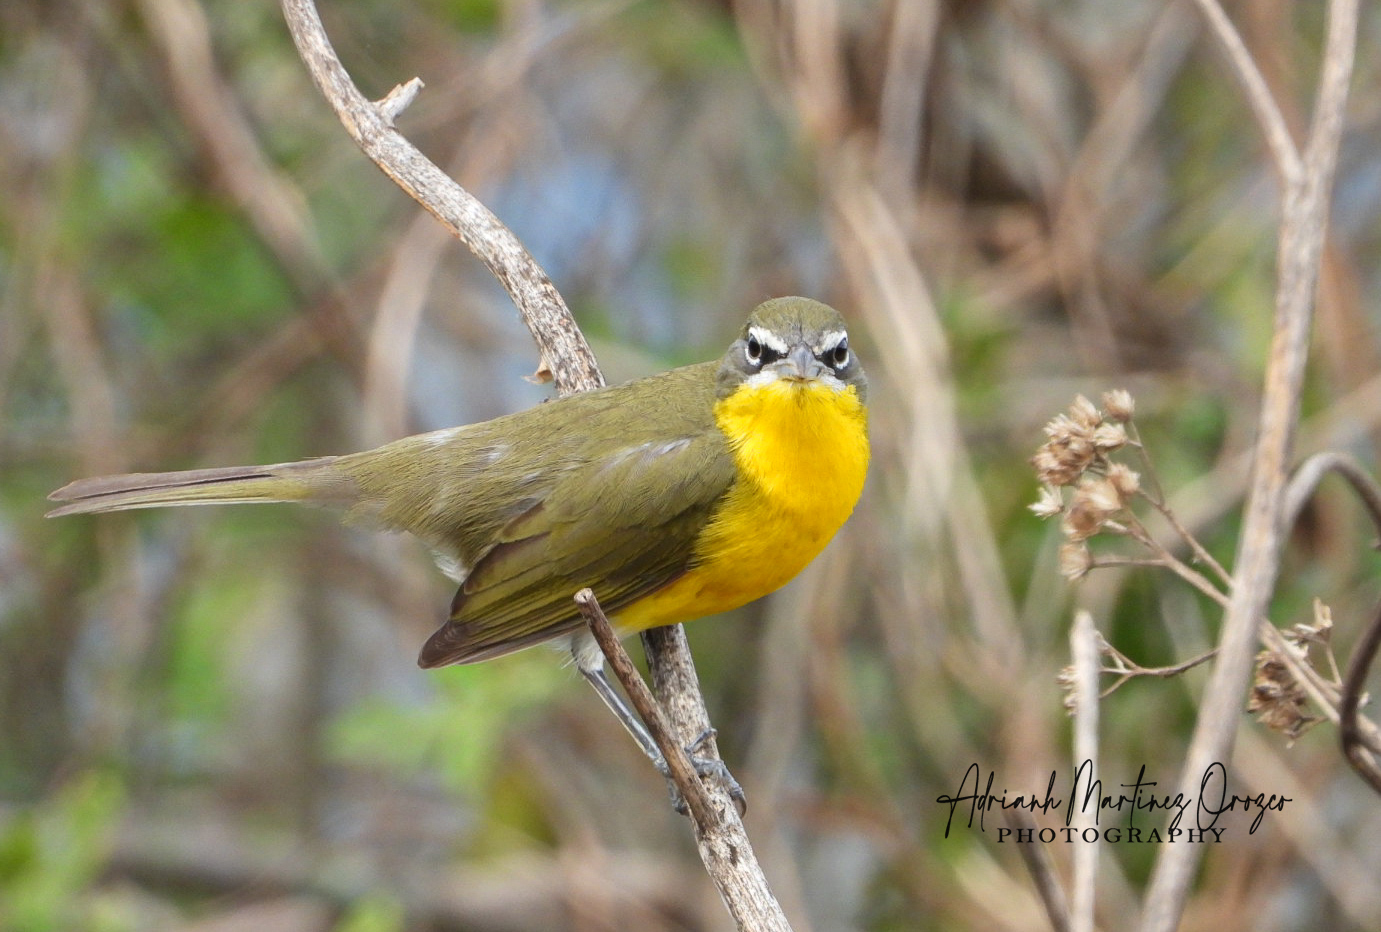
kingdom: Animalia
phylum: Chordata
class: Aves
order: Passeriformes
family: Parulidae
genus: Icteria
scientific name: Icteria virens
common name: Yellow-breasted chat
